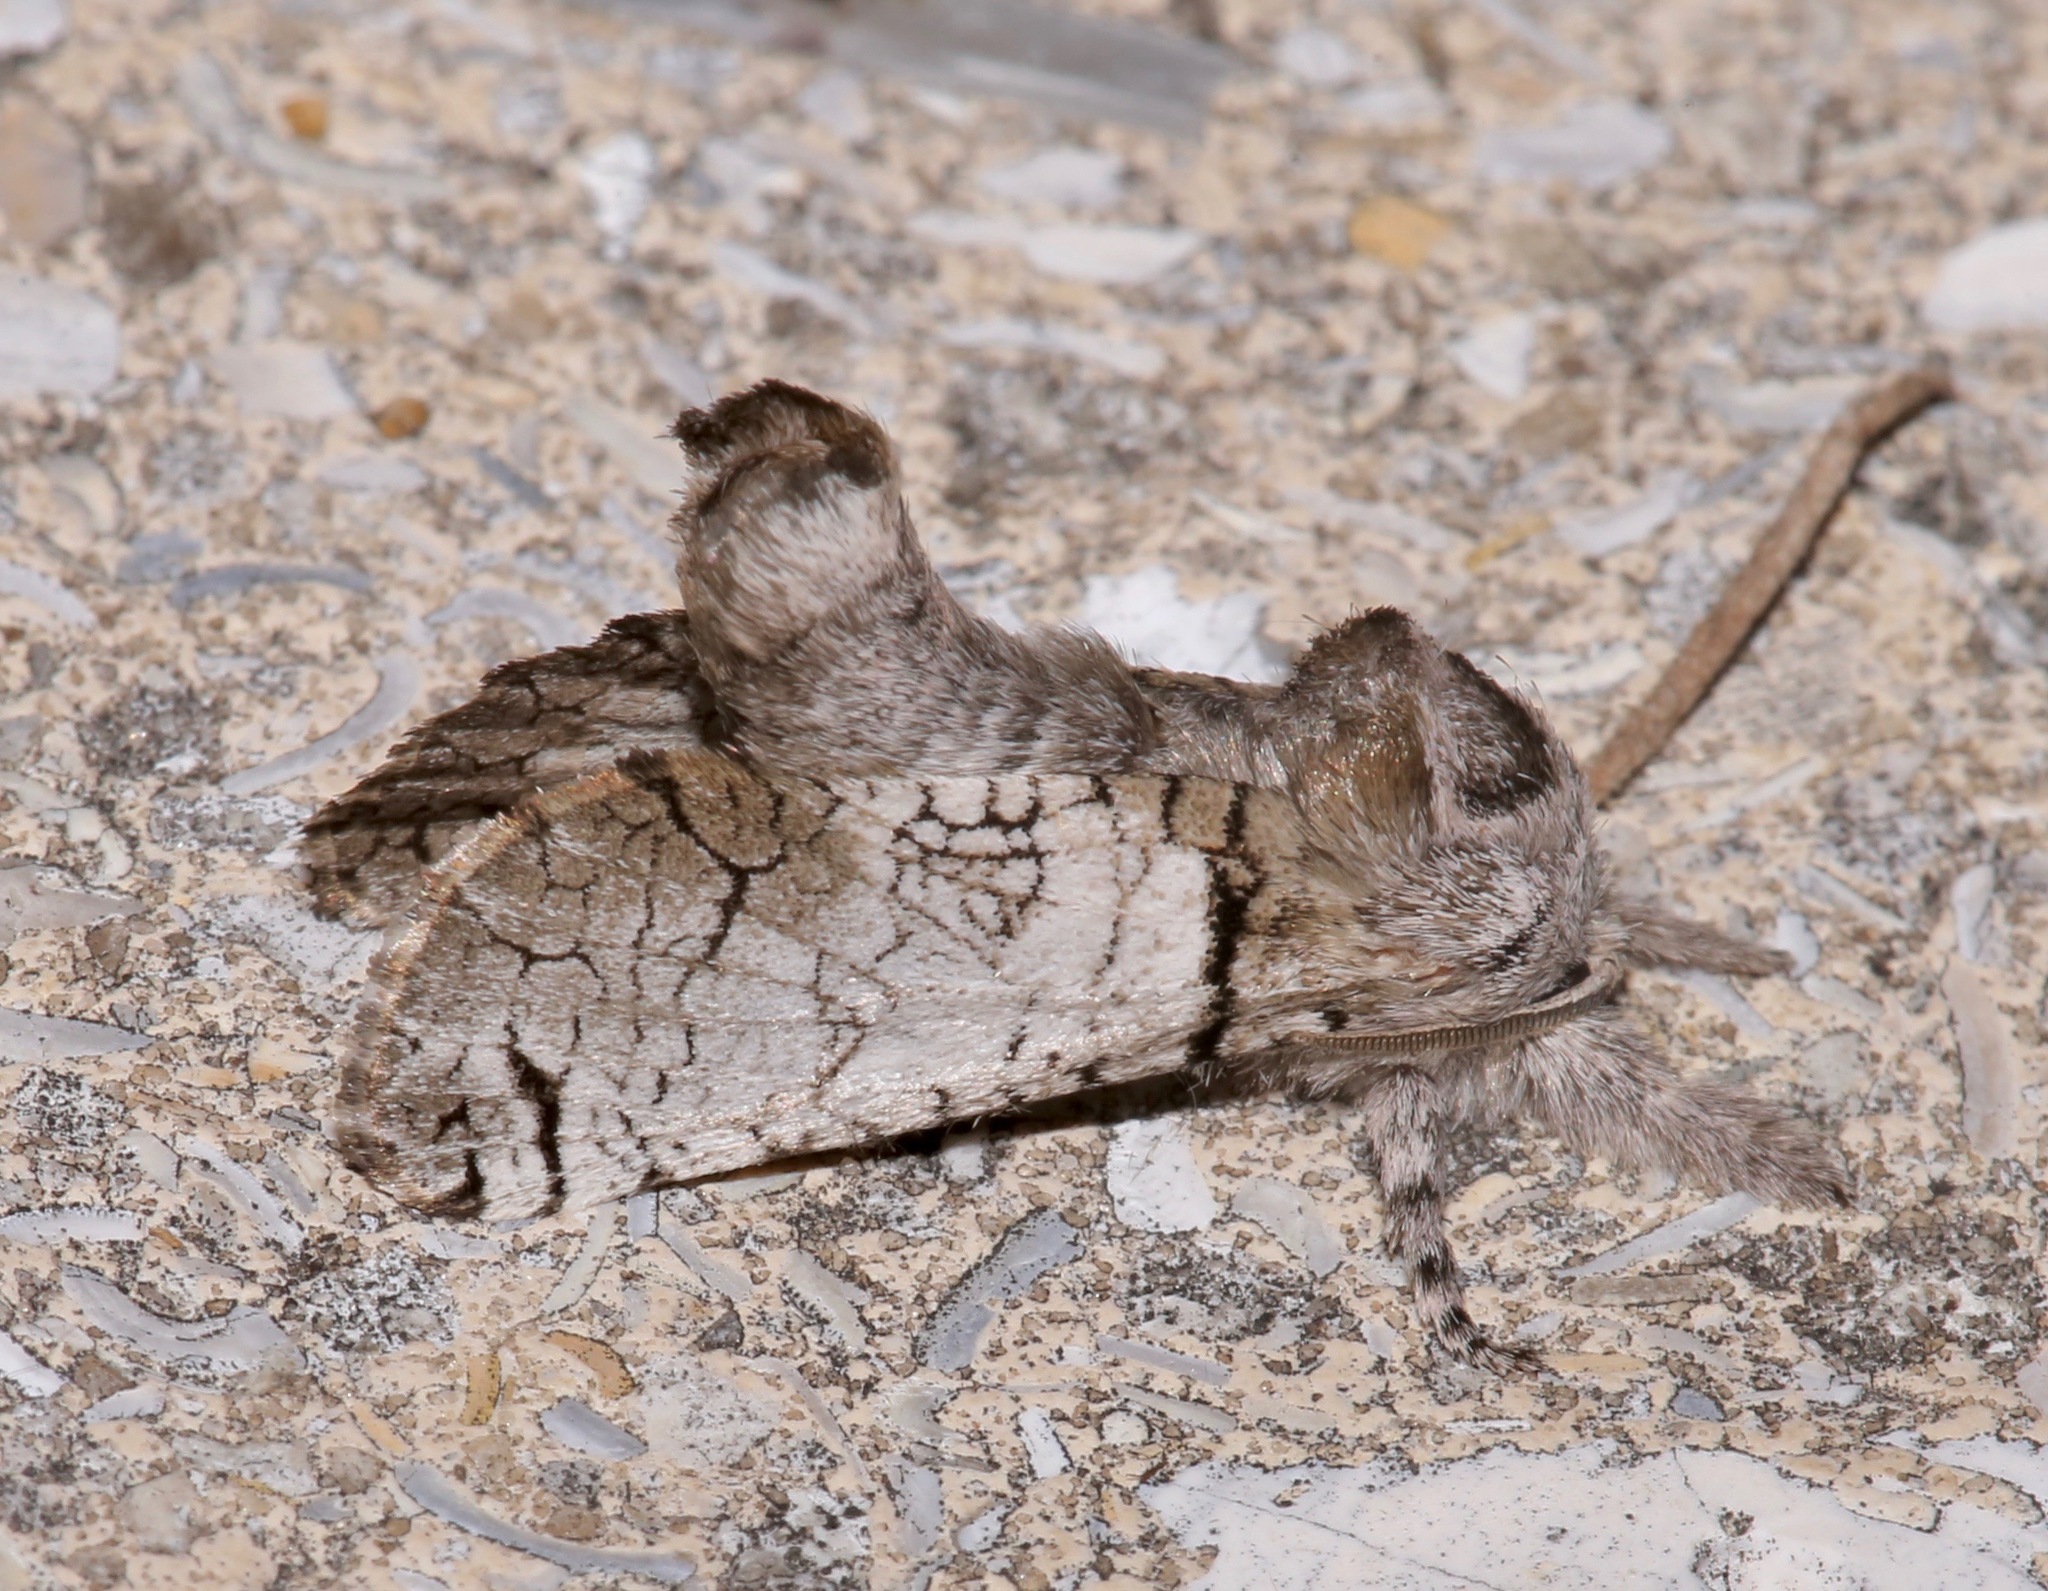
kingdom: Animalia
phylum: Arthropoda
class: Insecta
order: Lepidoptera
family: Cossidae
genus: Inguromorpha
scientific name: Inguromorpha basalis
